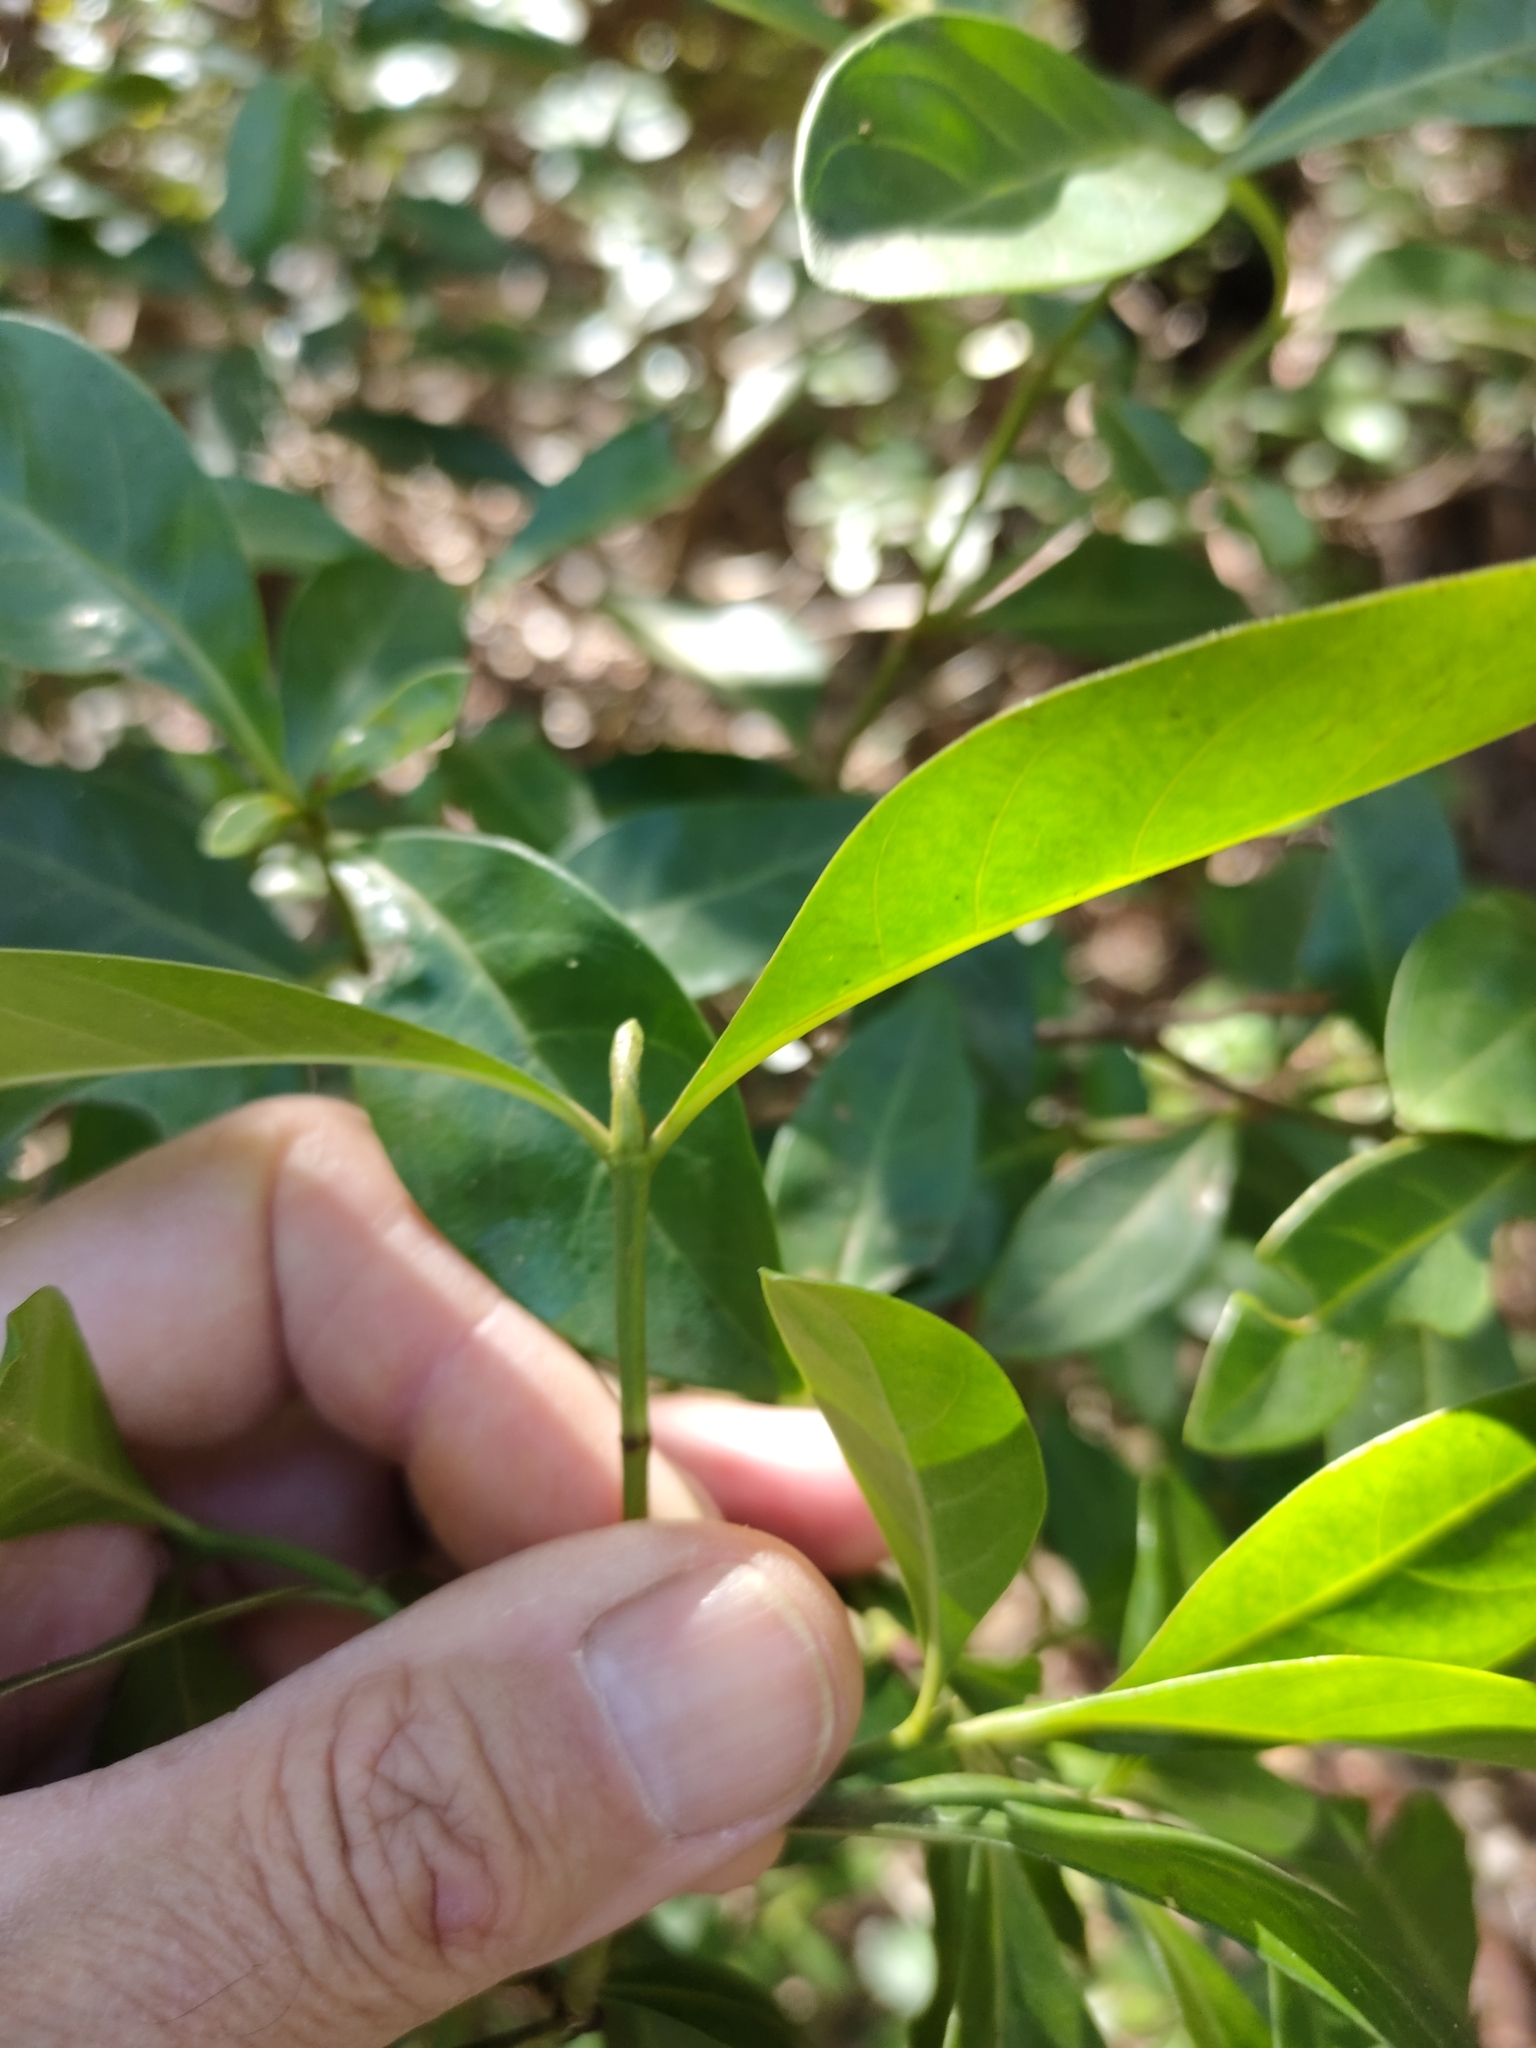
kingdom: Plantae
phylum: Tracheophyta
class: Magnoliopsida
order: Gentianales
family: Rubiaceae
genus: Psychotria
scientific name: Psychotria daphnoides
